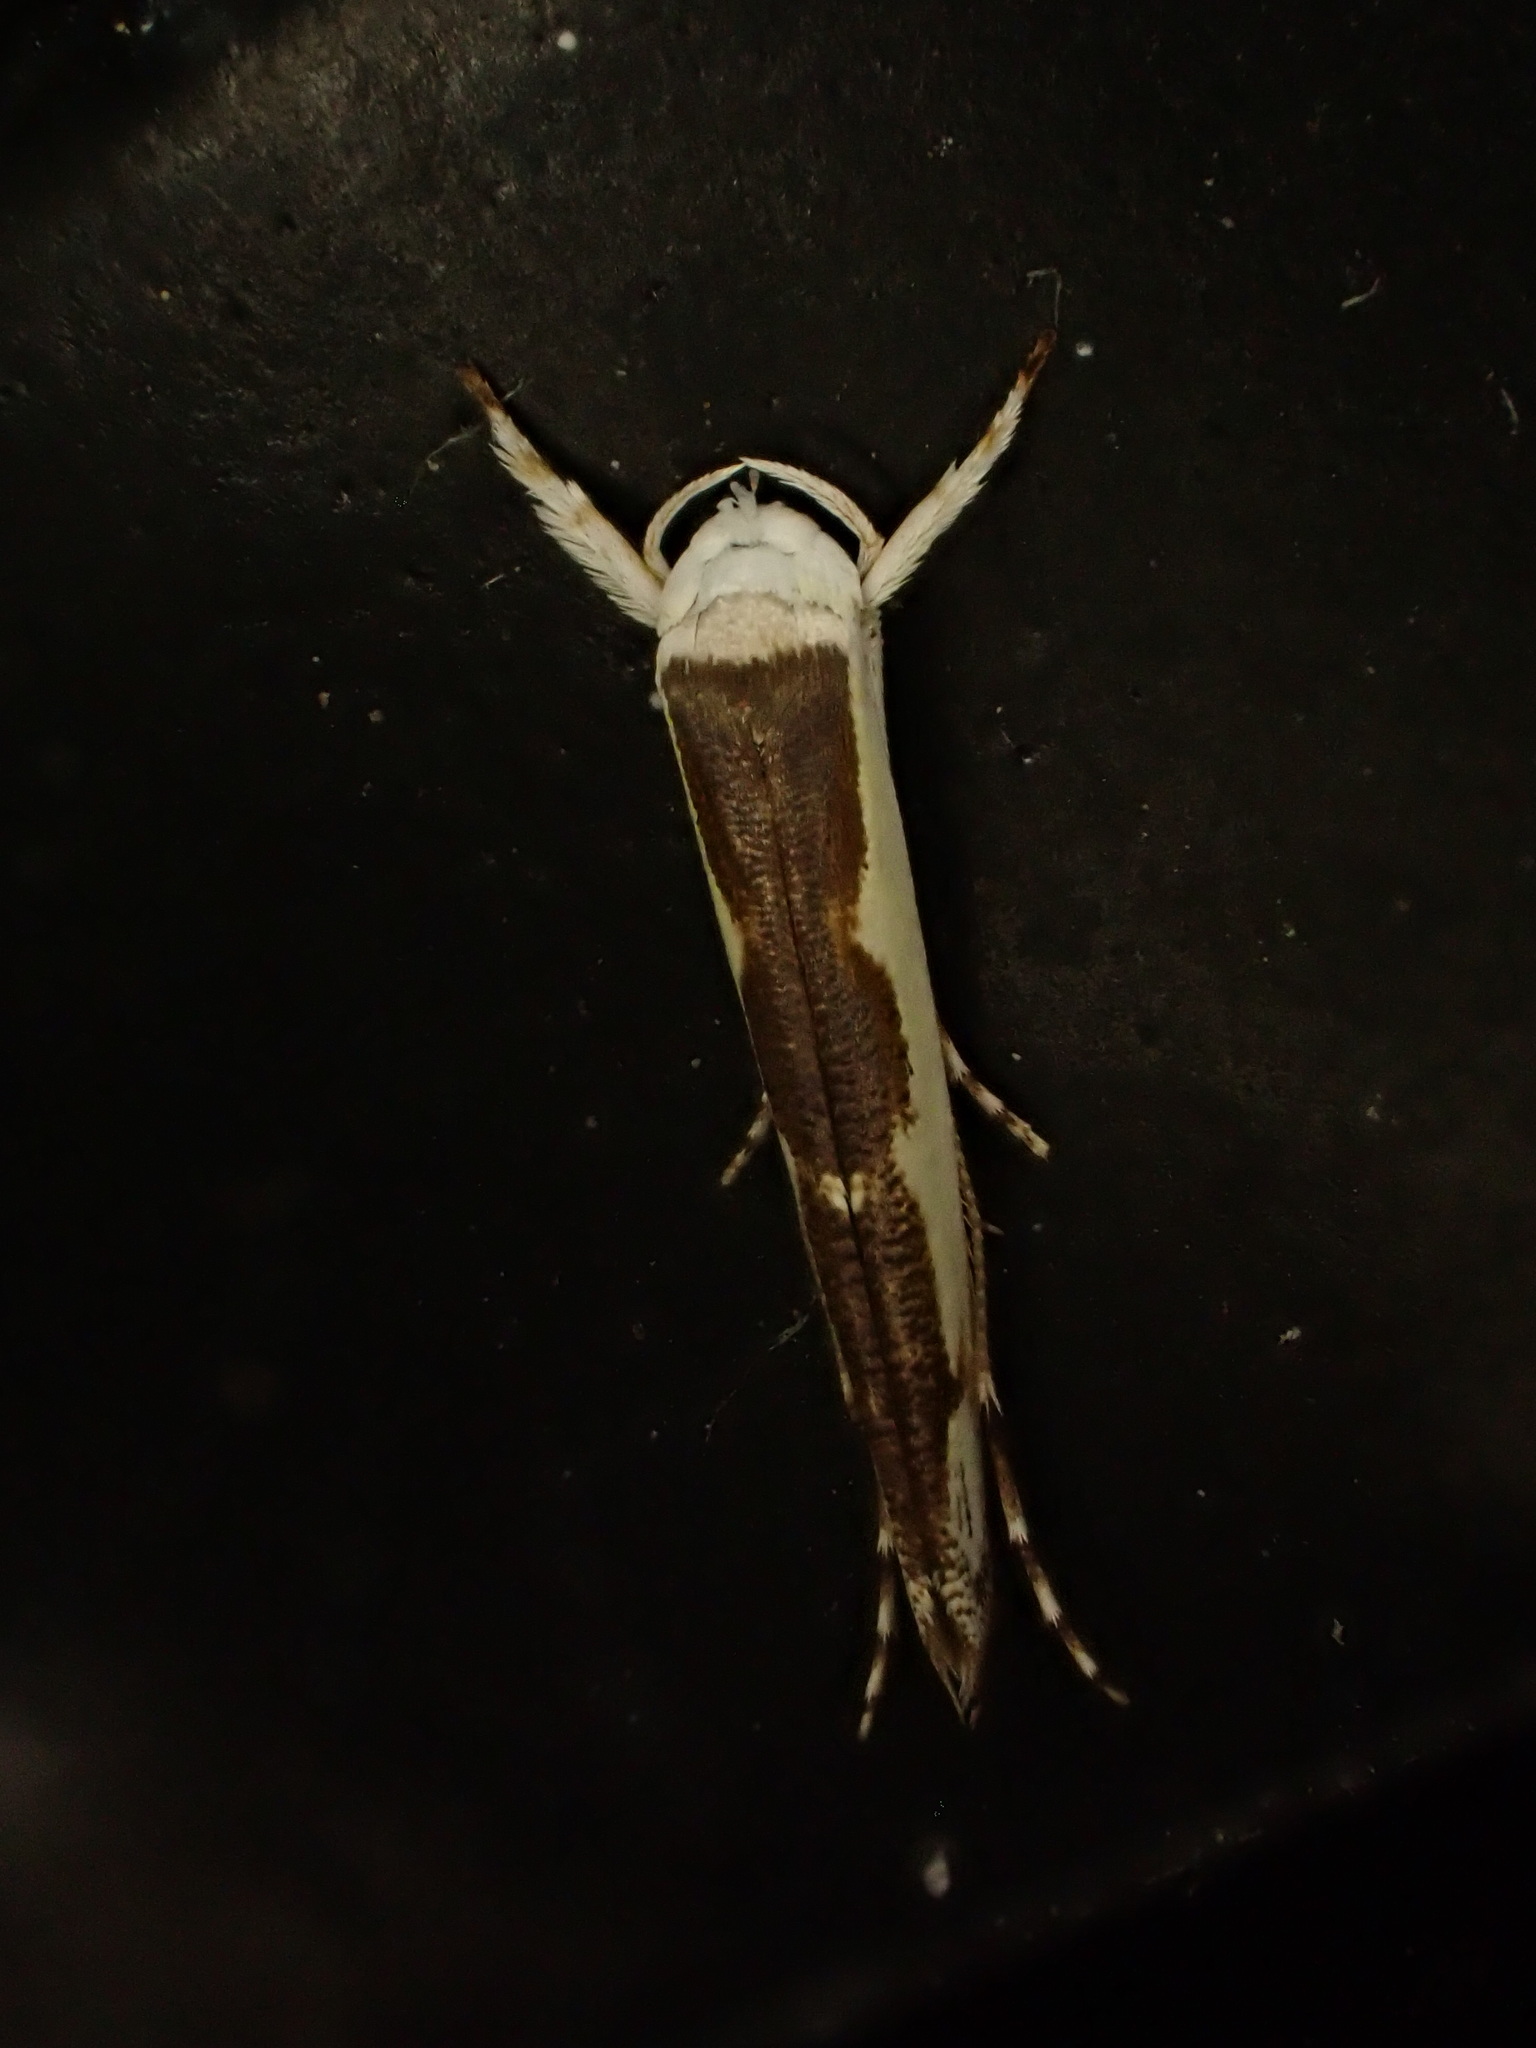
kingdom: Animalia
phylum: Arthropoda
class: Insecta
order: Lepidoptera
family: Roeslerstammiidae
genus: Vanicela
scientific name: Vanicela disjunctella
